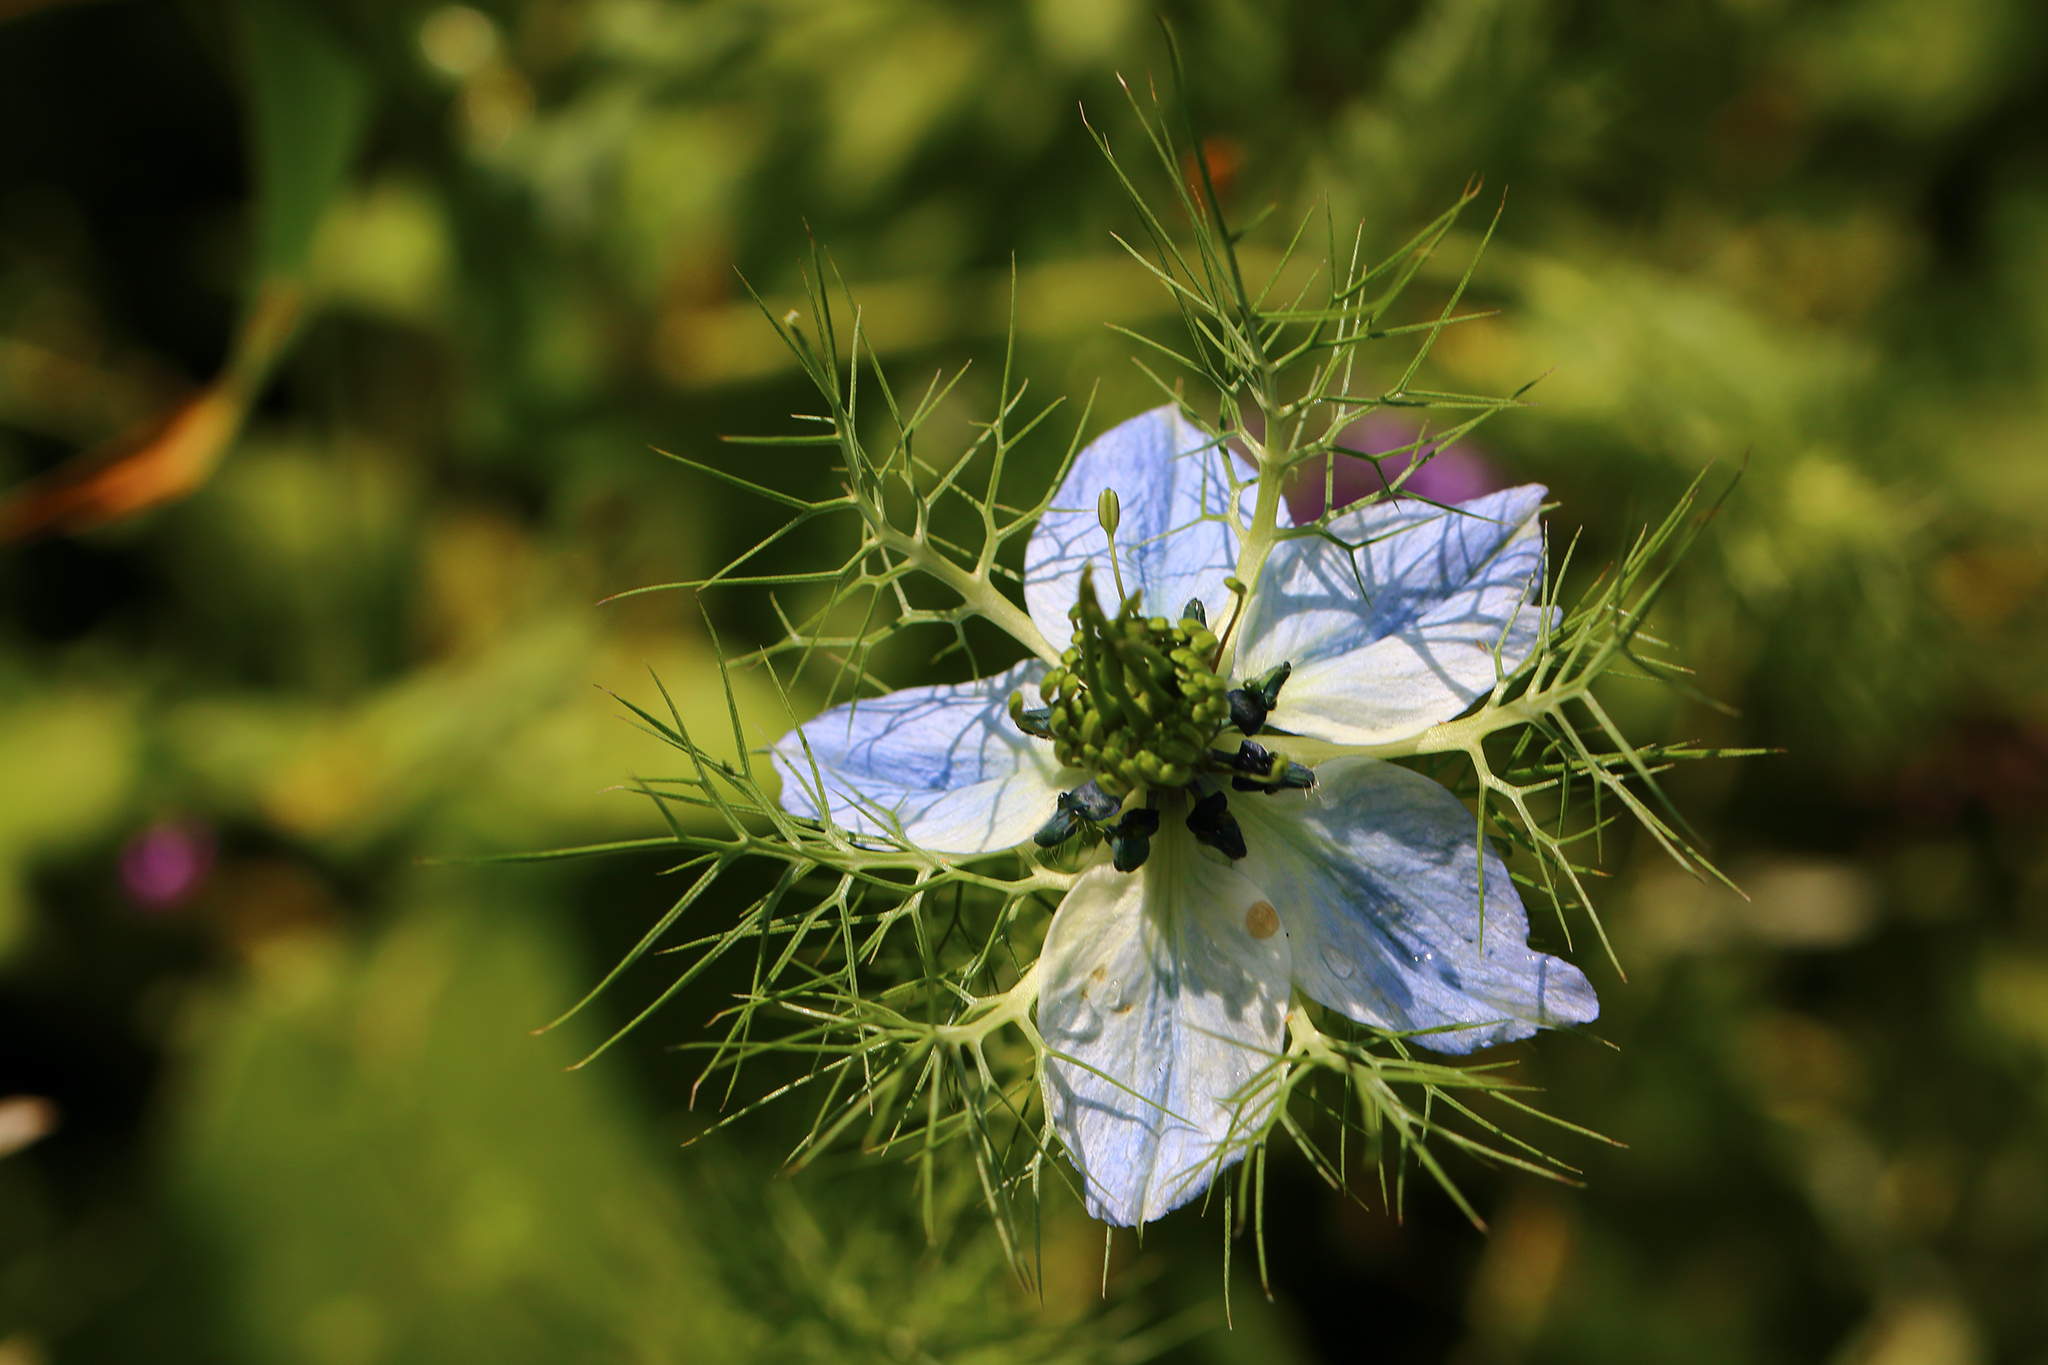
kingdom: Plantae
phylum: Tracheophyta
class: Magnoliopsida
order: Ranunculales
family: Ranunculaceae
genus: Nigella
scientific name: Nigella damascena
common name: Love-in-a-mist
